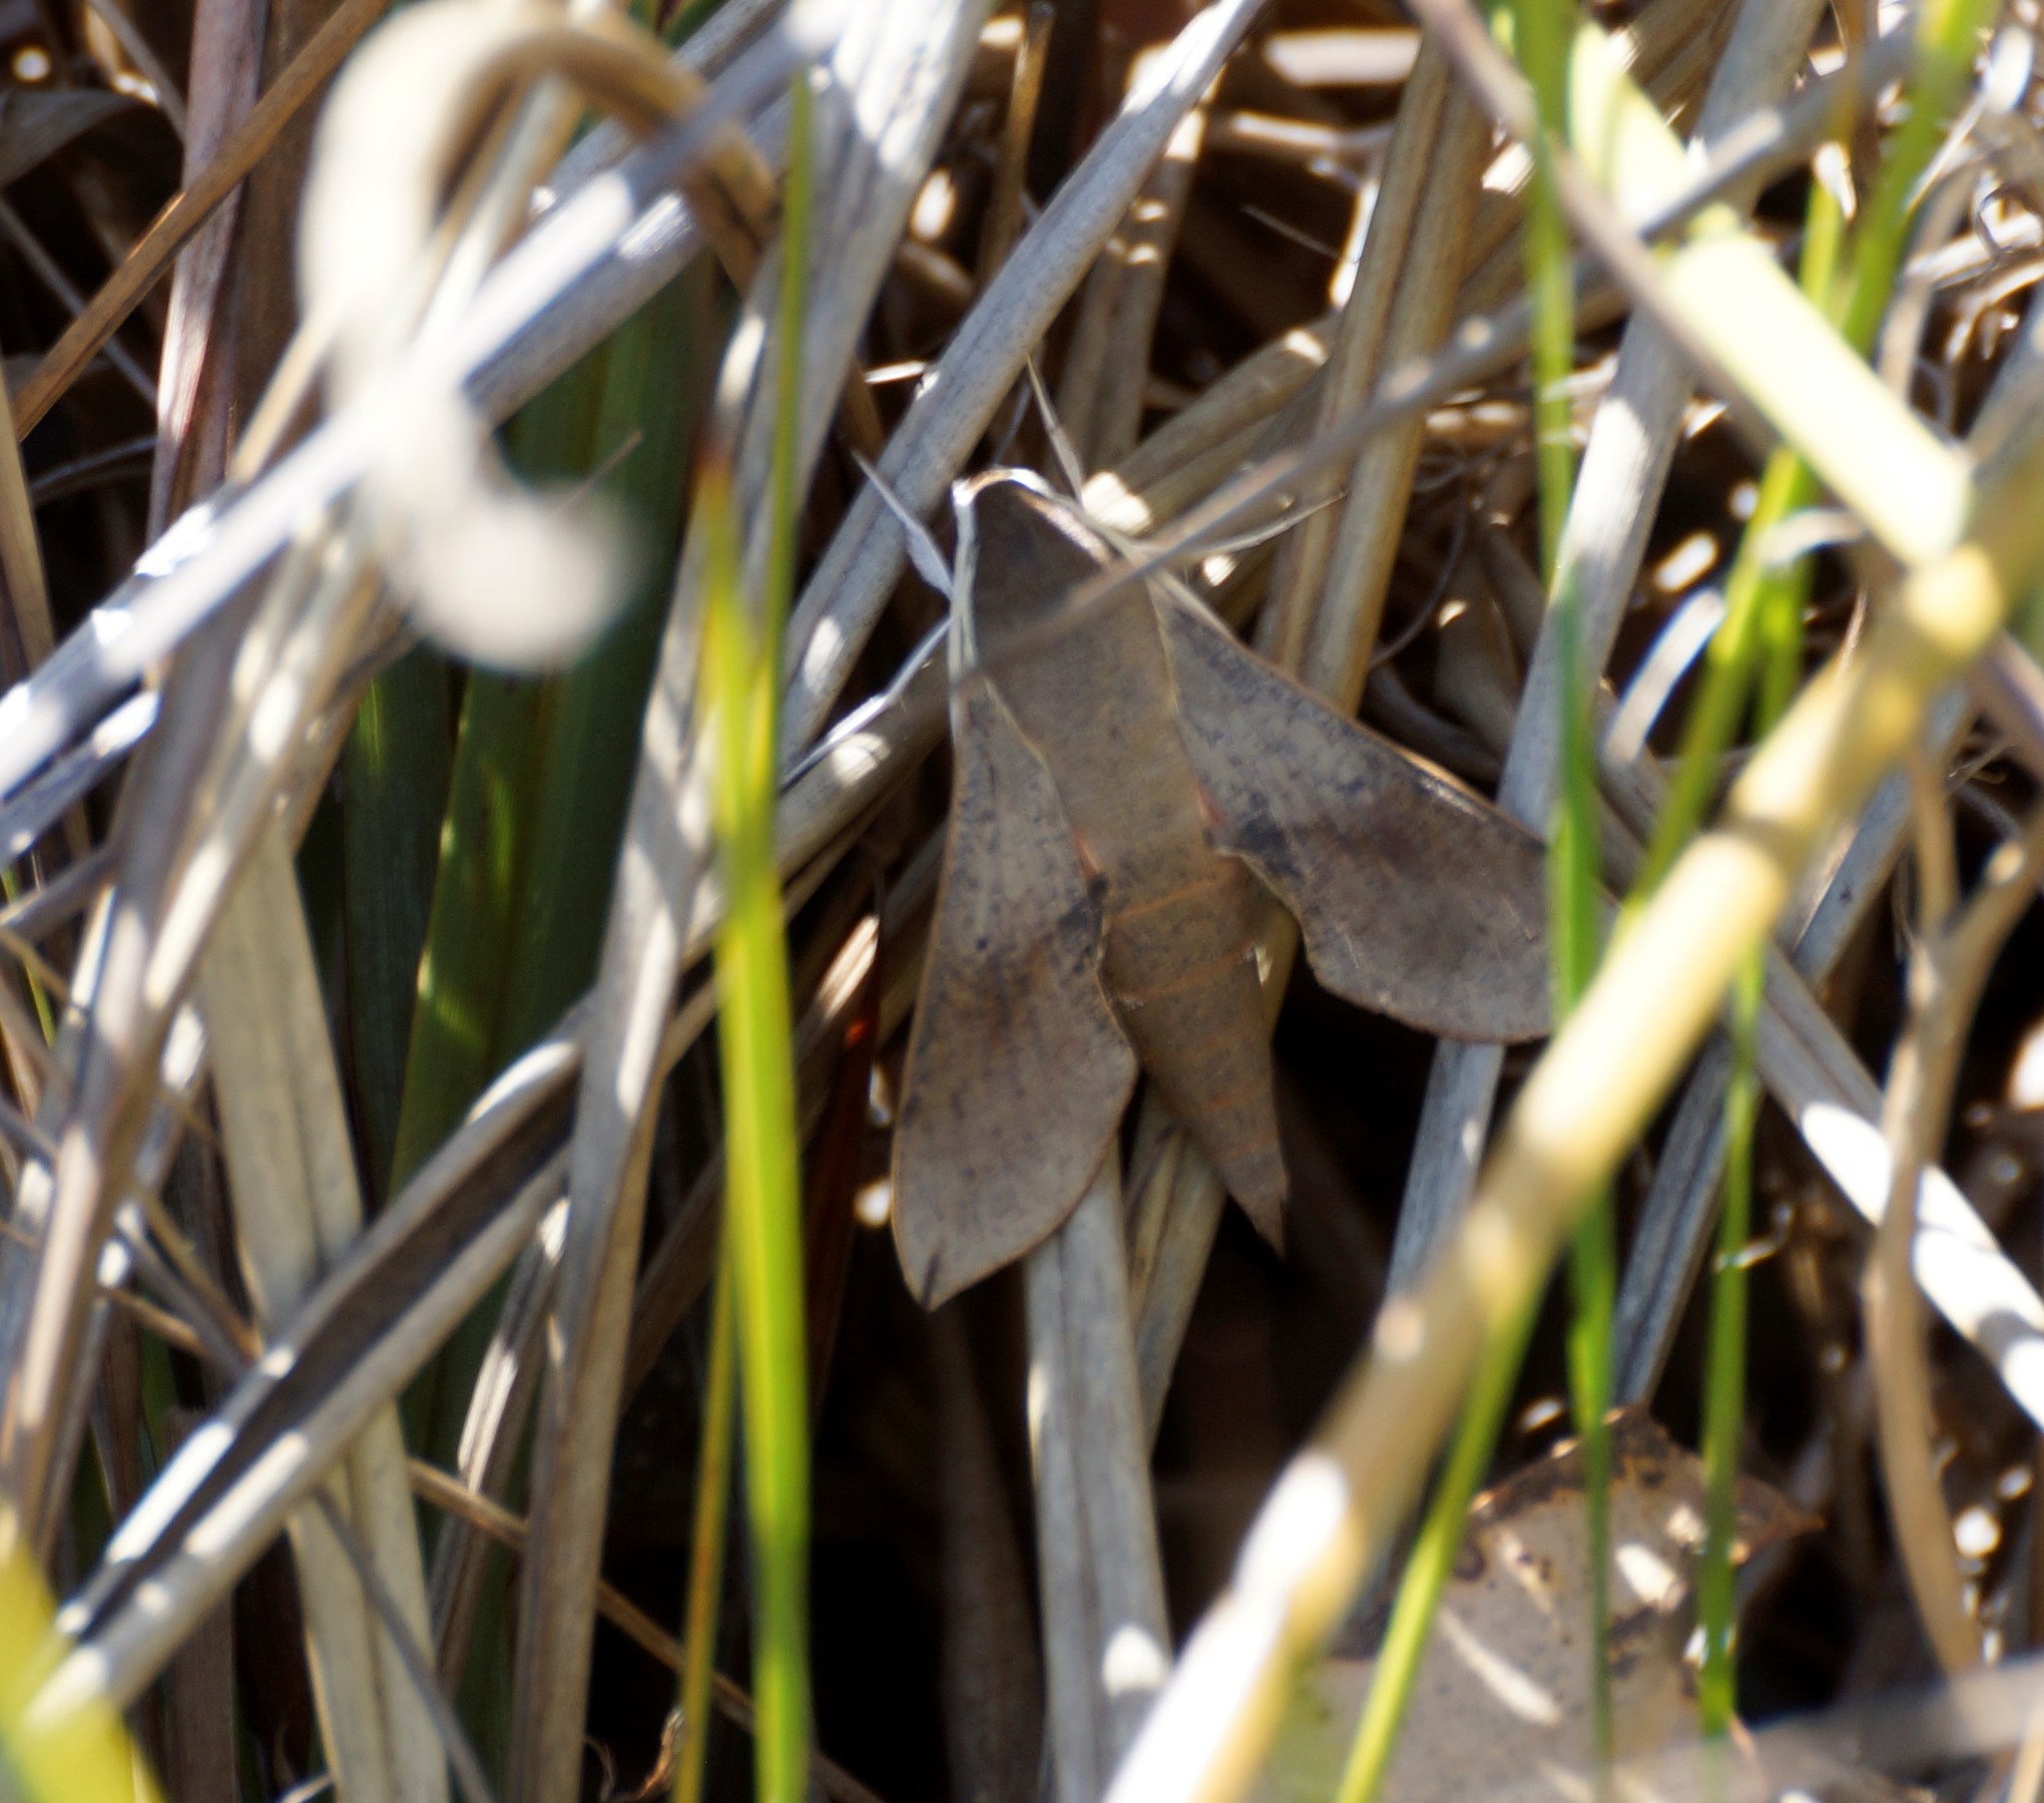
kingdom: Animalia
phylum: Arthropoda
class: Insecta
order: Lepidoptera
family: Sphingidae
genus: Hippotion
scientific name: Hippotion scrofa
